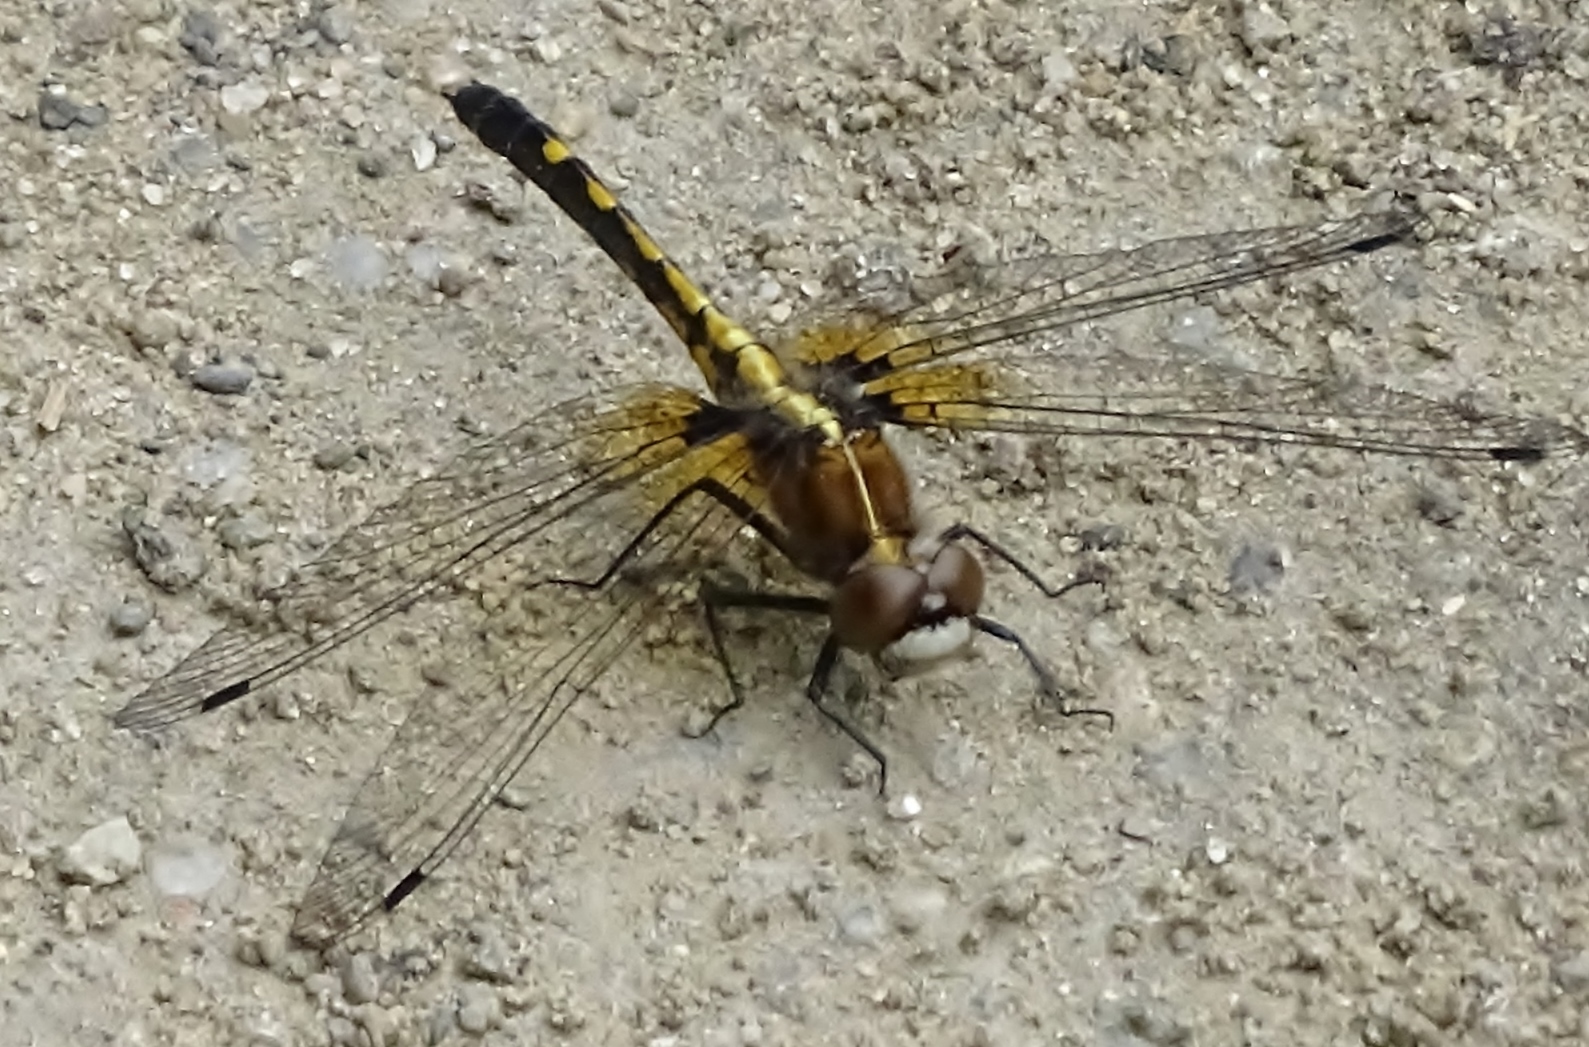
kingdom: Animalia
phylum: Arthropoda
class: Insecta
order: Odonata
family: Libellulidae
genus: Leucorrhinia
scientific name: Leucorrhinia intacta
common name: Dot-tailed whiteface
